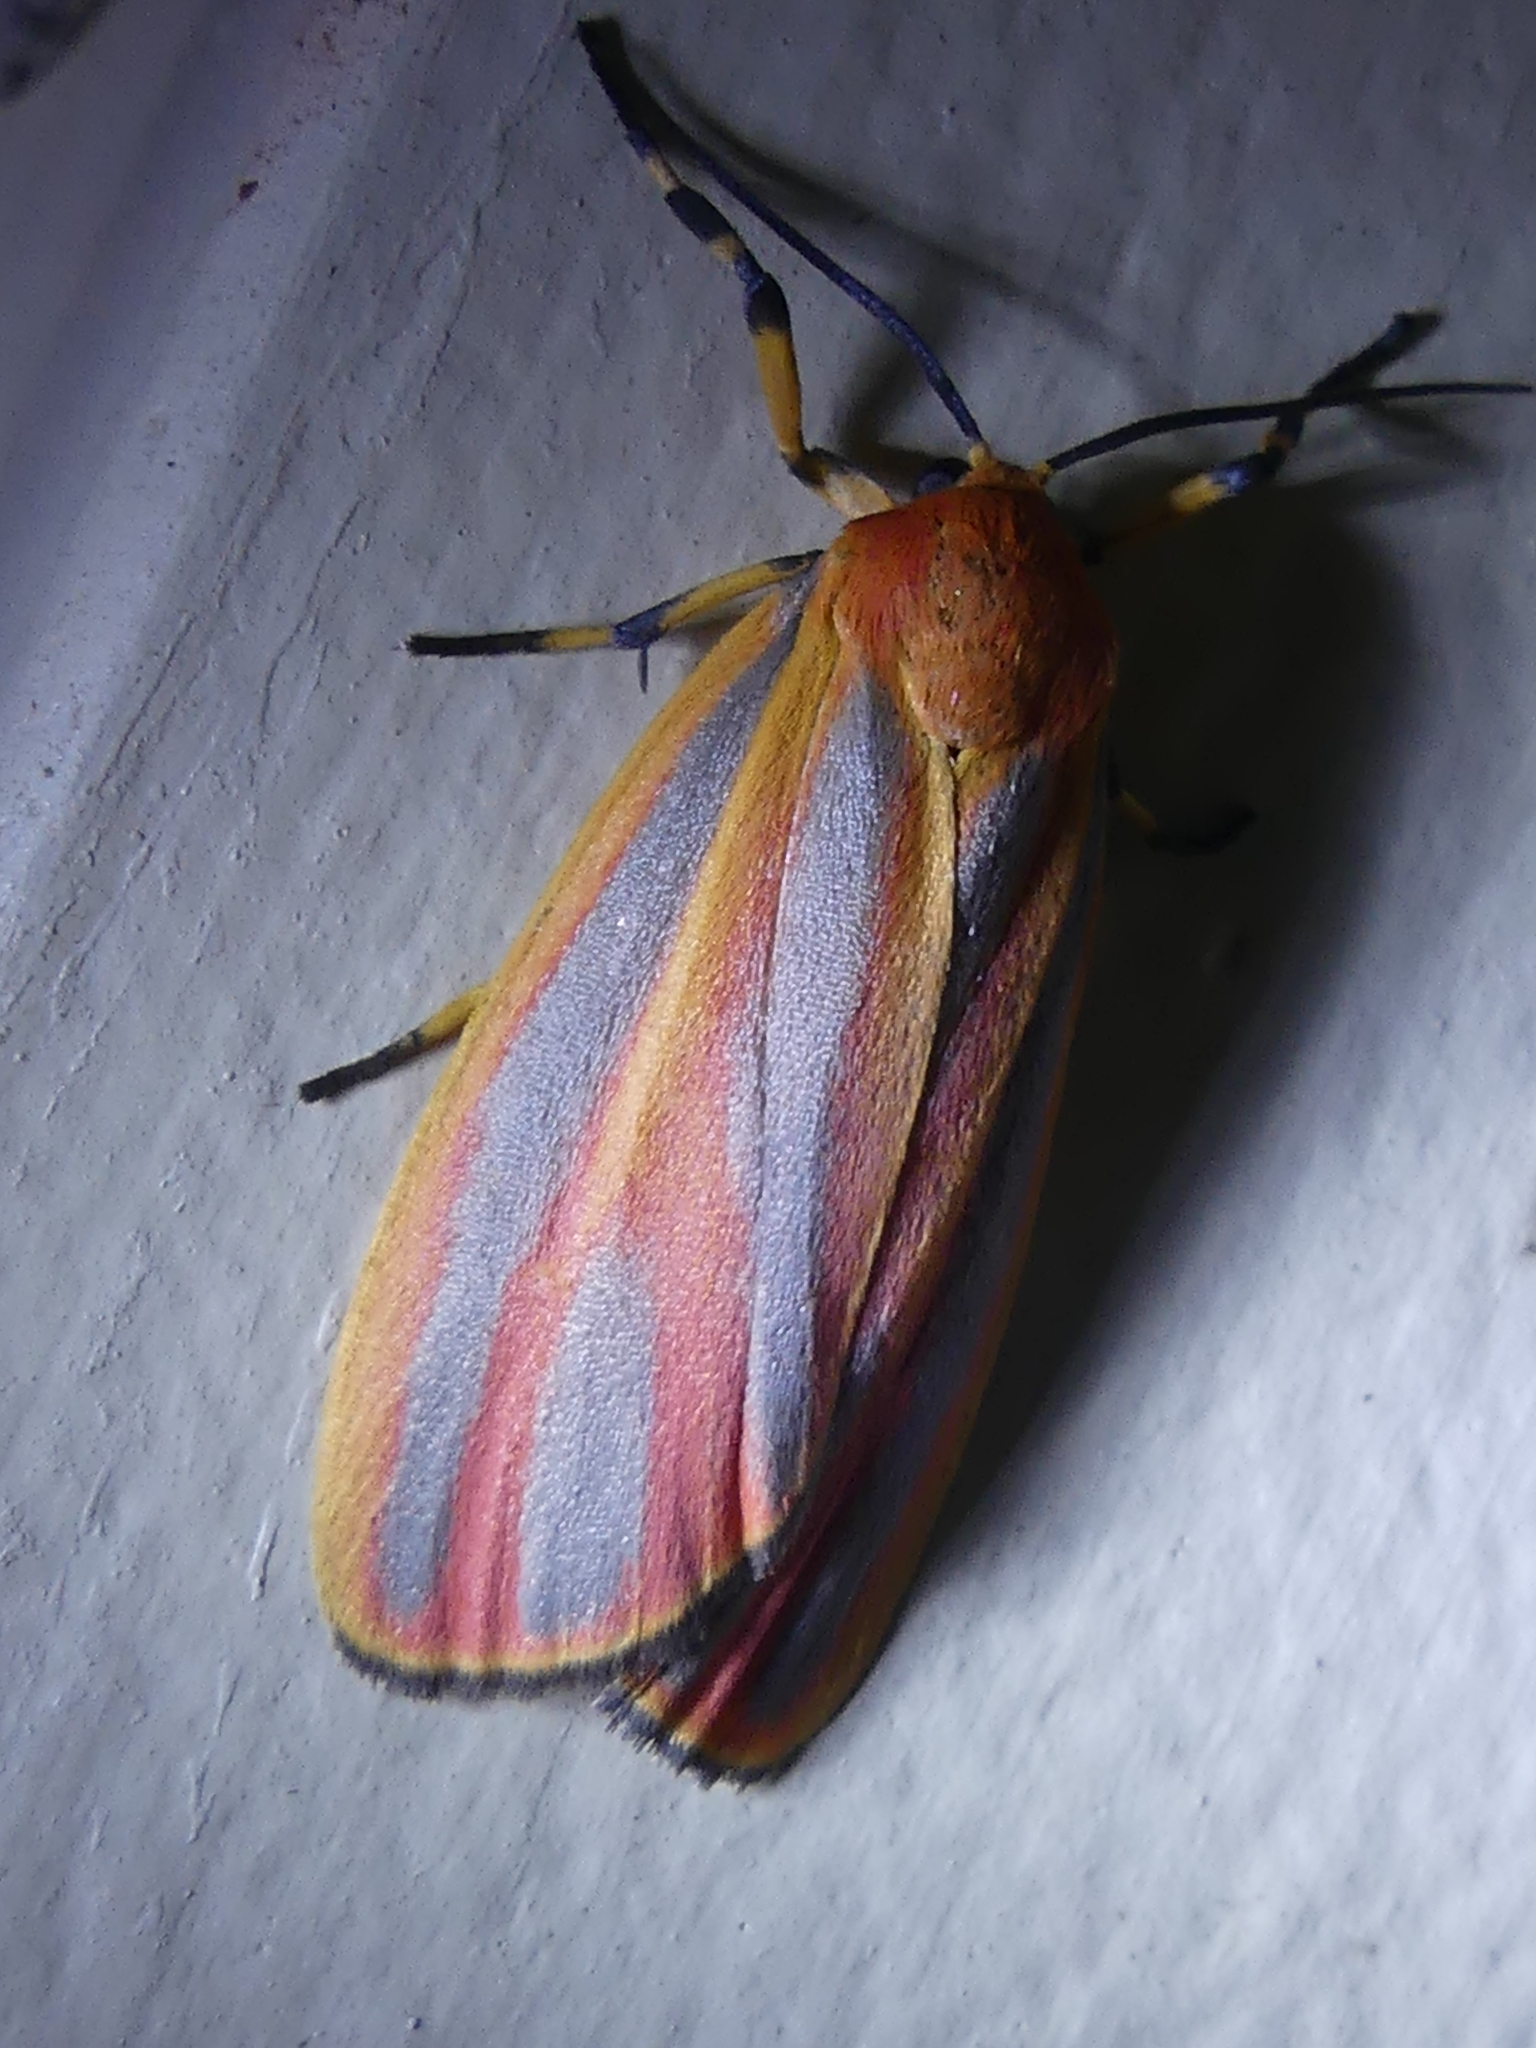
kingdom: Animalia
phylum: Arthropoda
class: Insecta
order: Lepidoptera
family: Erebidae
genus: Hypoprepia
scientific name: Hypoprepia fucosa
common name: Painted lichen moth
